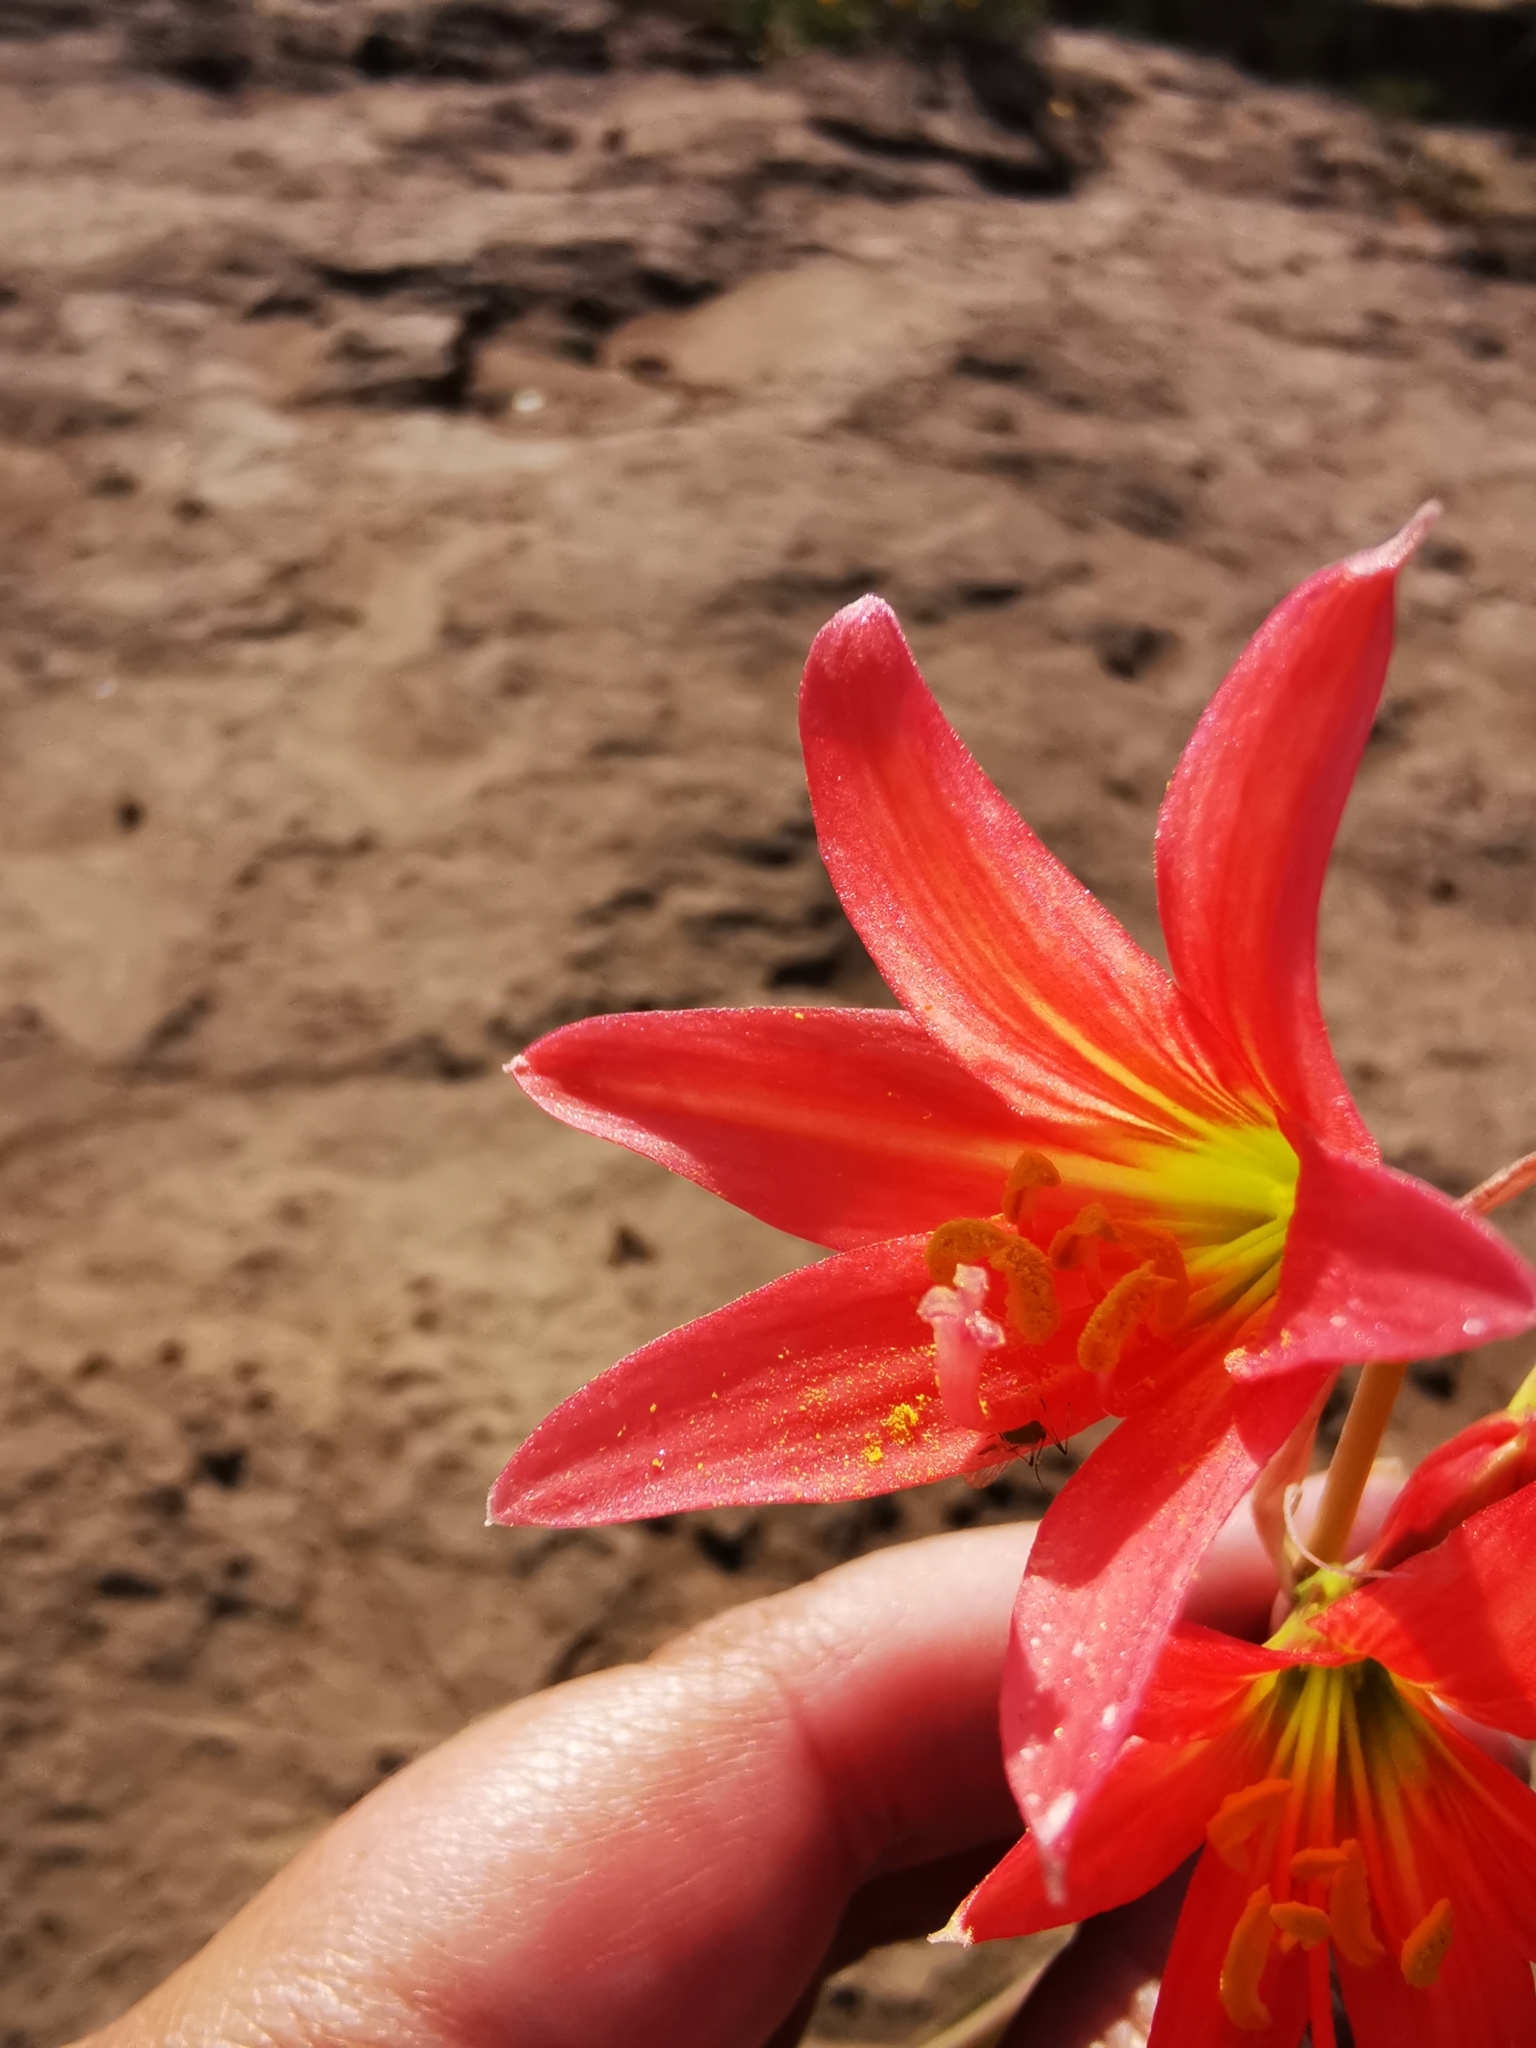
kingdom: Plantae
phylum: Tracheophyta
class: Liliopsida
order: Asparagales
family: Amaryllidaceae
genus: Zephyranthes
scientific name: Zephyranthes advena
